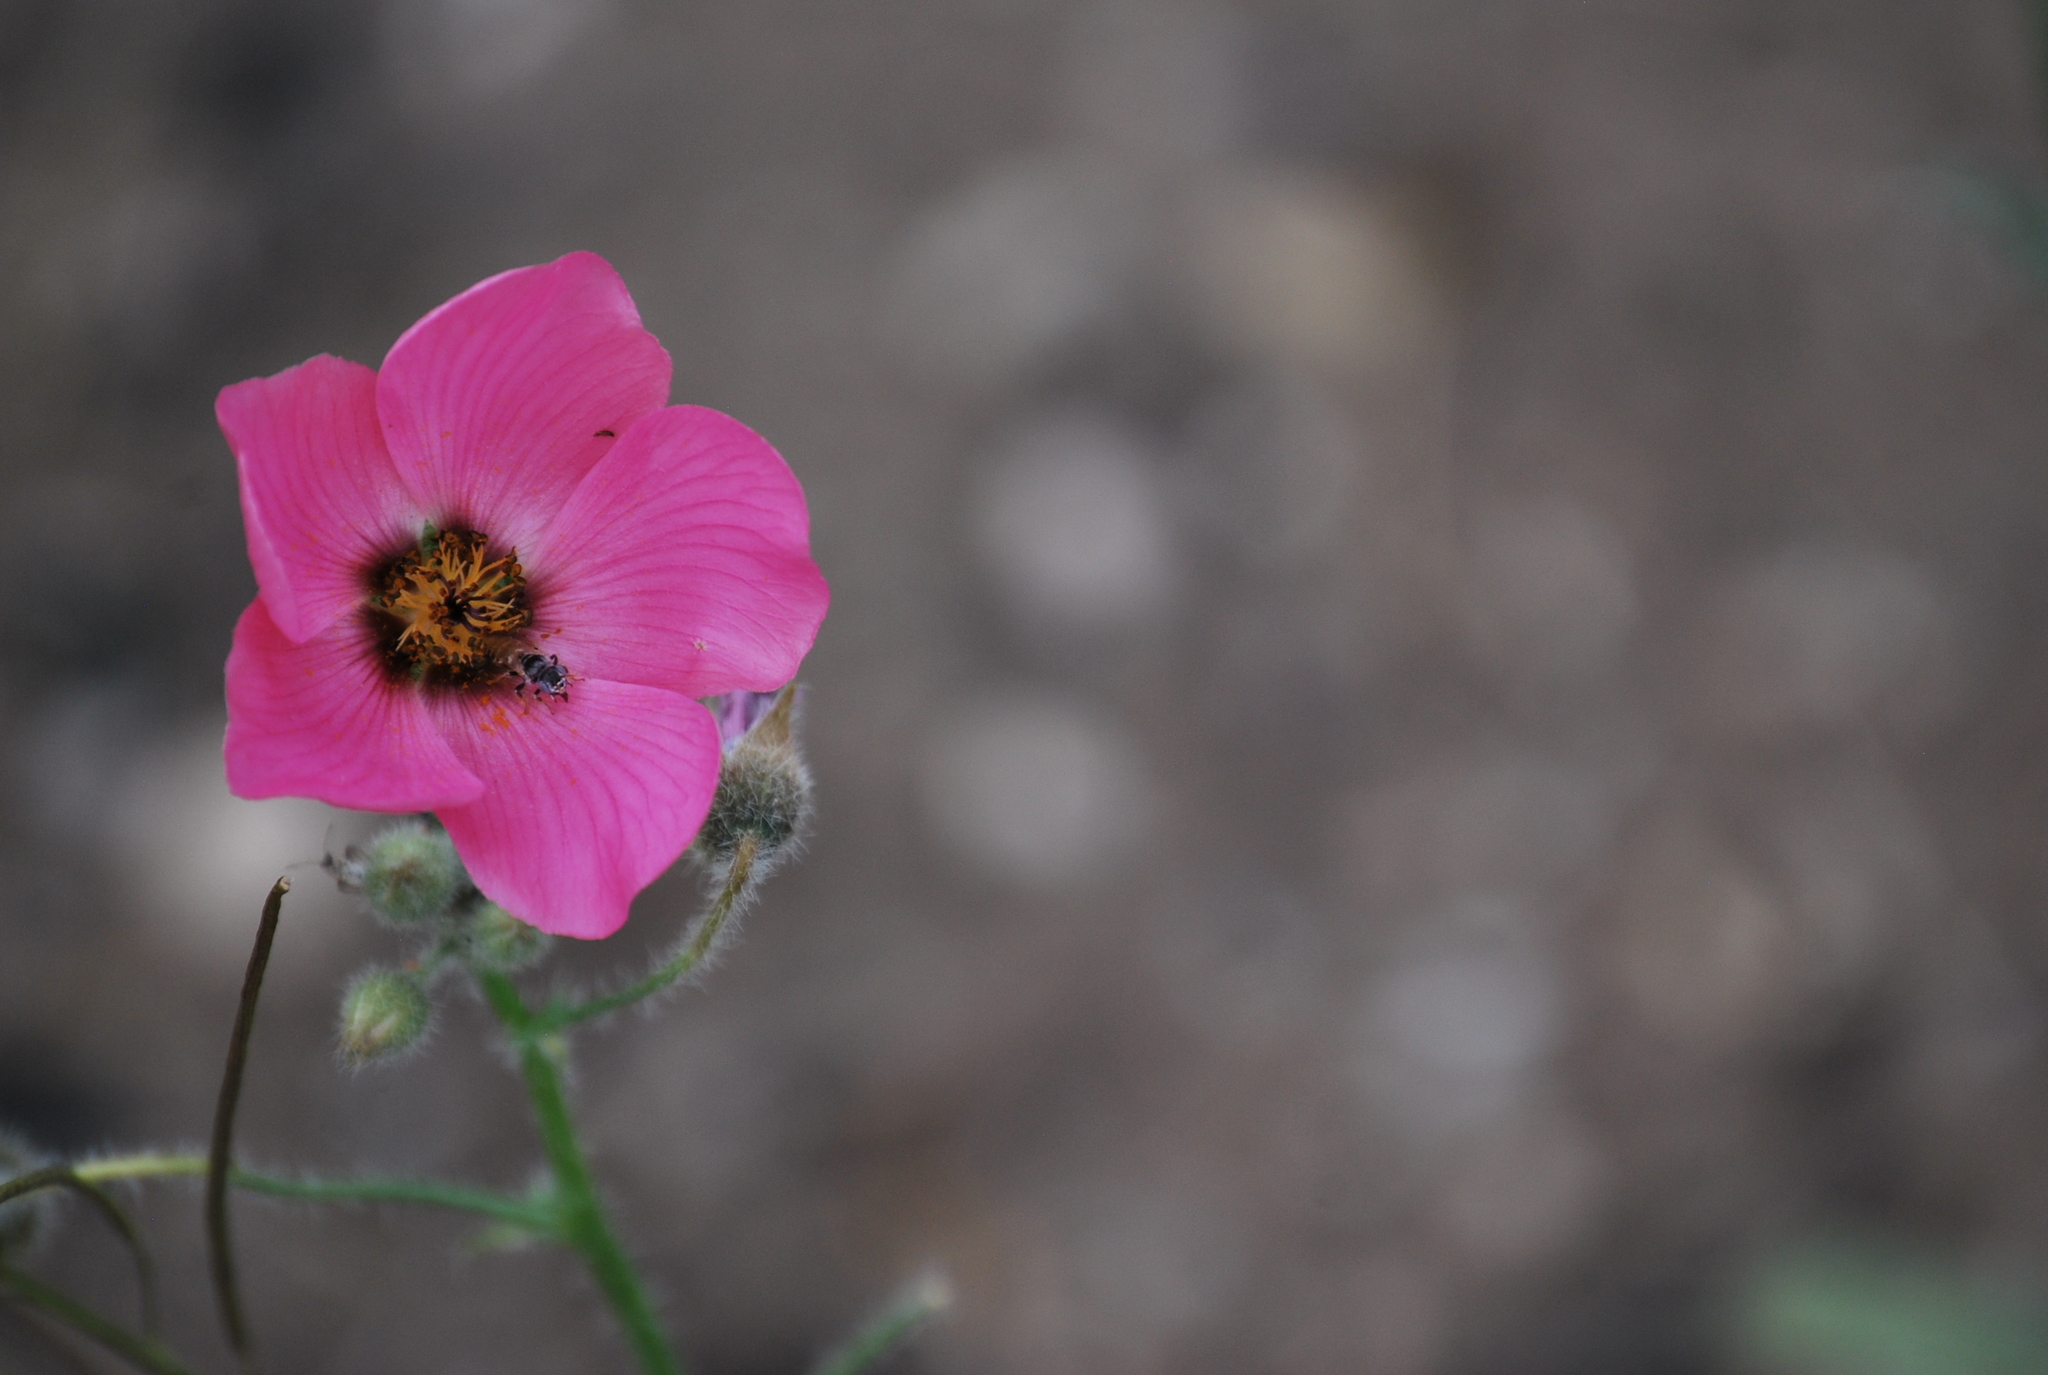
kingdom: Plantae
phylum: Tracheophyta
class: Magnoliopsida
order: Malvales
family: Malvaceae
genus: Lecanophora
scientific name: Lecanophora heterophylla
